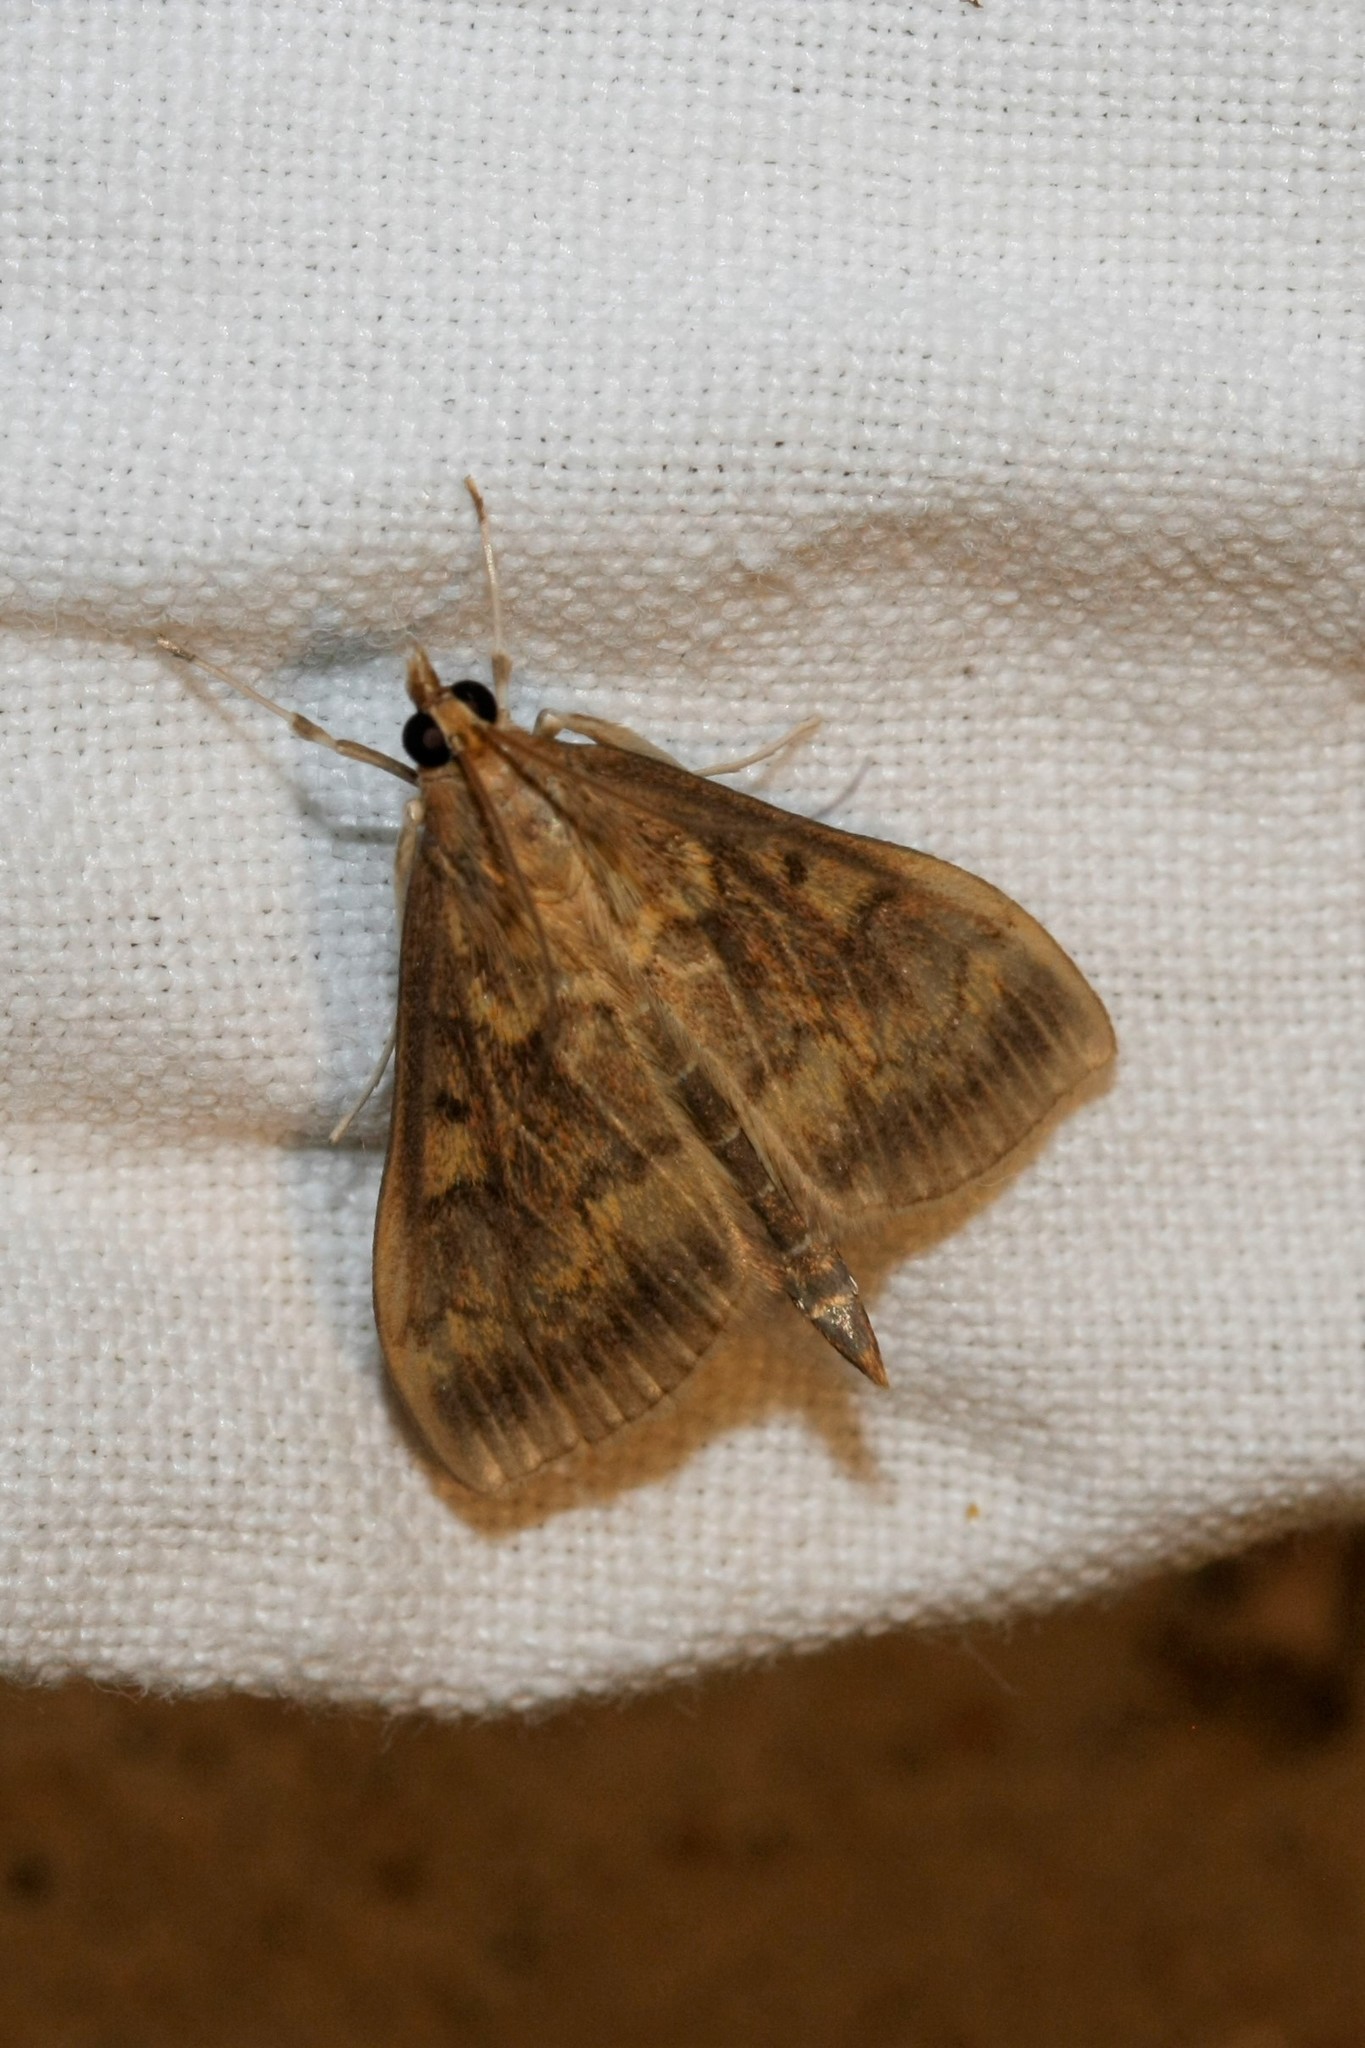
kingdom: Animalia
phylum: Arthropoda
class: Insecta
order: Lepidoptera
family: Crambidae
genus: Ostrinia
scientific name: Ostrinia nubilalis
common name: European corn borer
